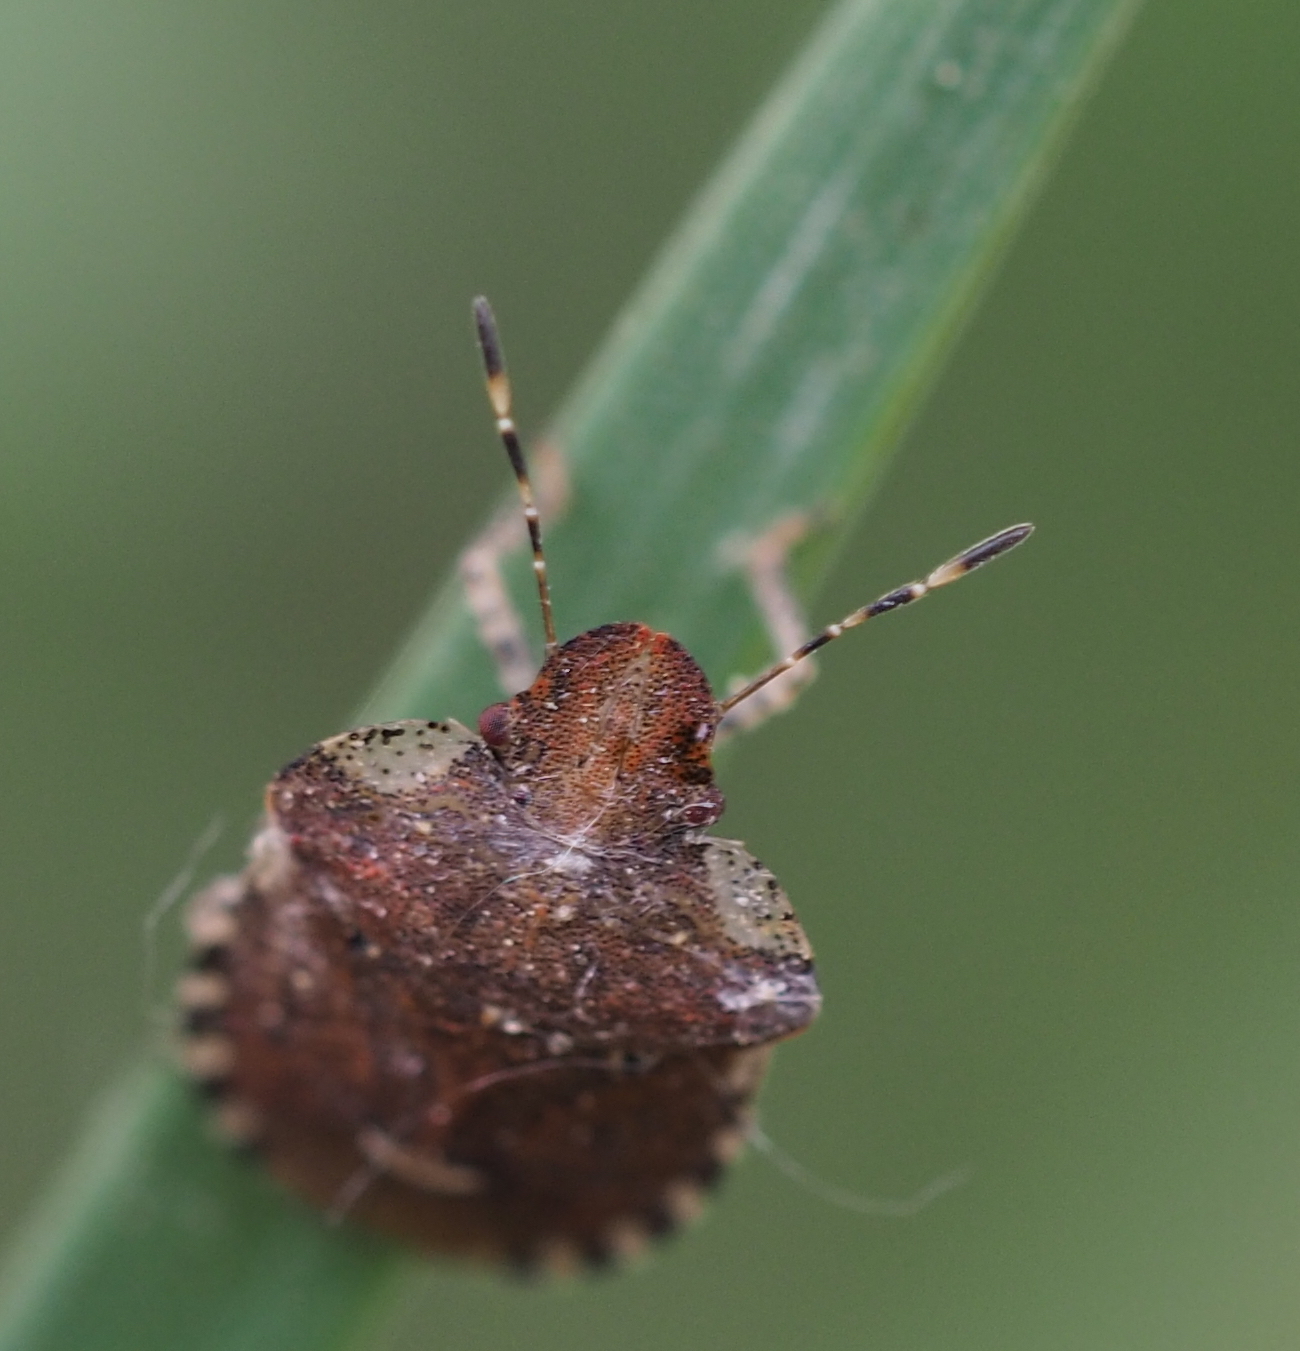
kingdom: Animalia
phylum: Arthropoda
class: Insecta
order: Hemiptera
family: Pentatomidae
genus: Dyroderes
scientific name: Dyroderes umbraculatus
